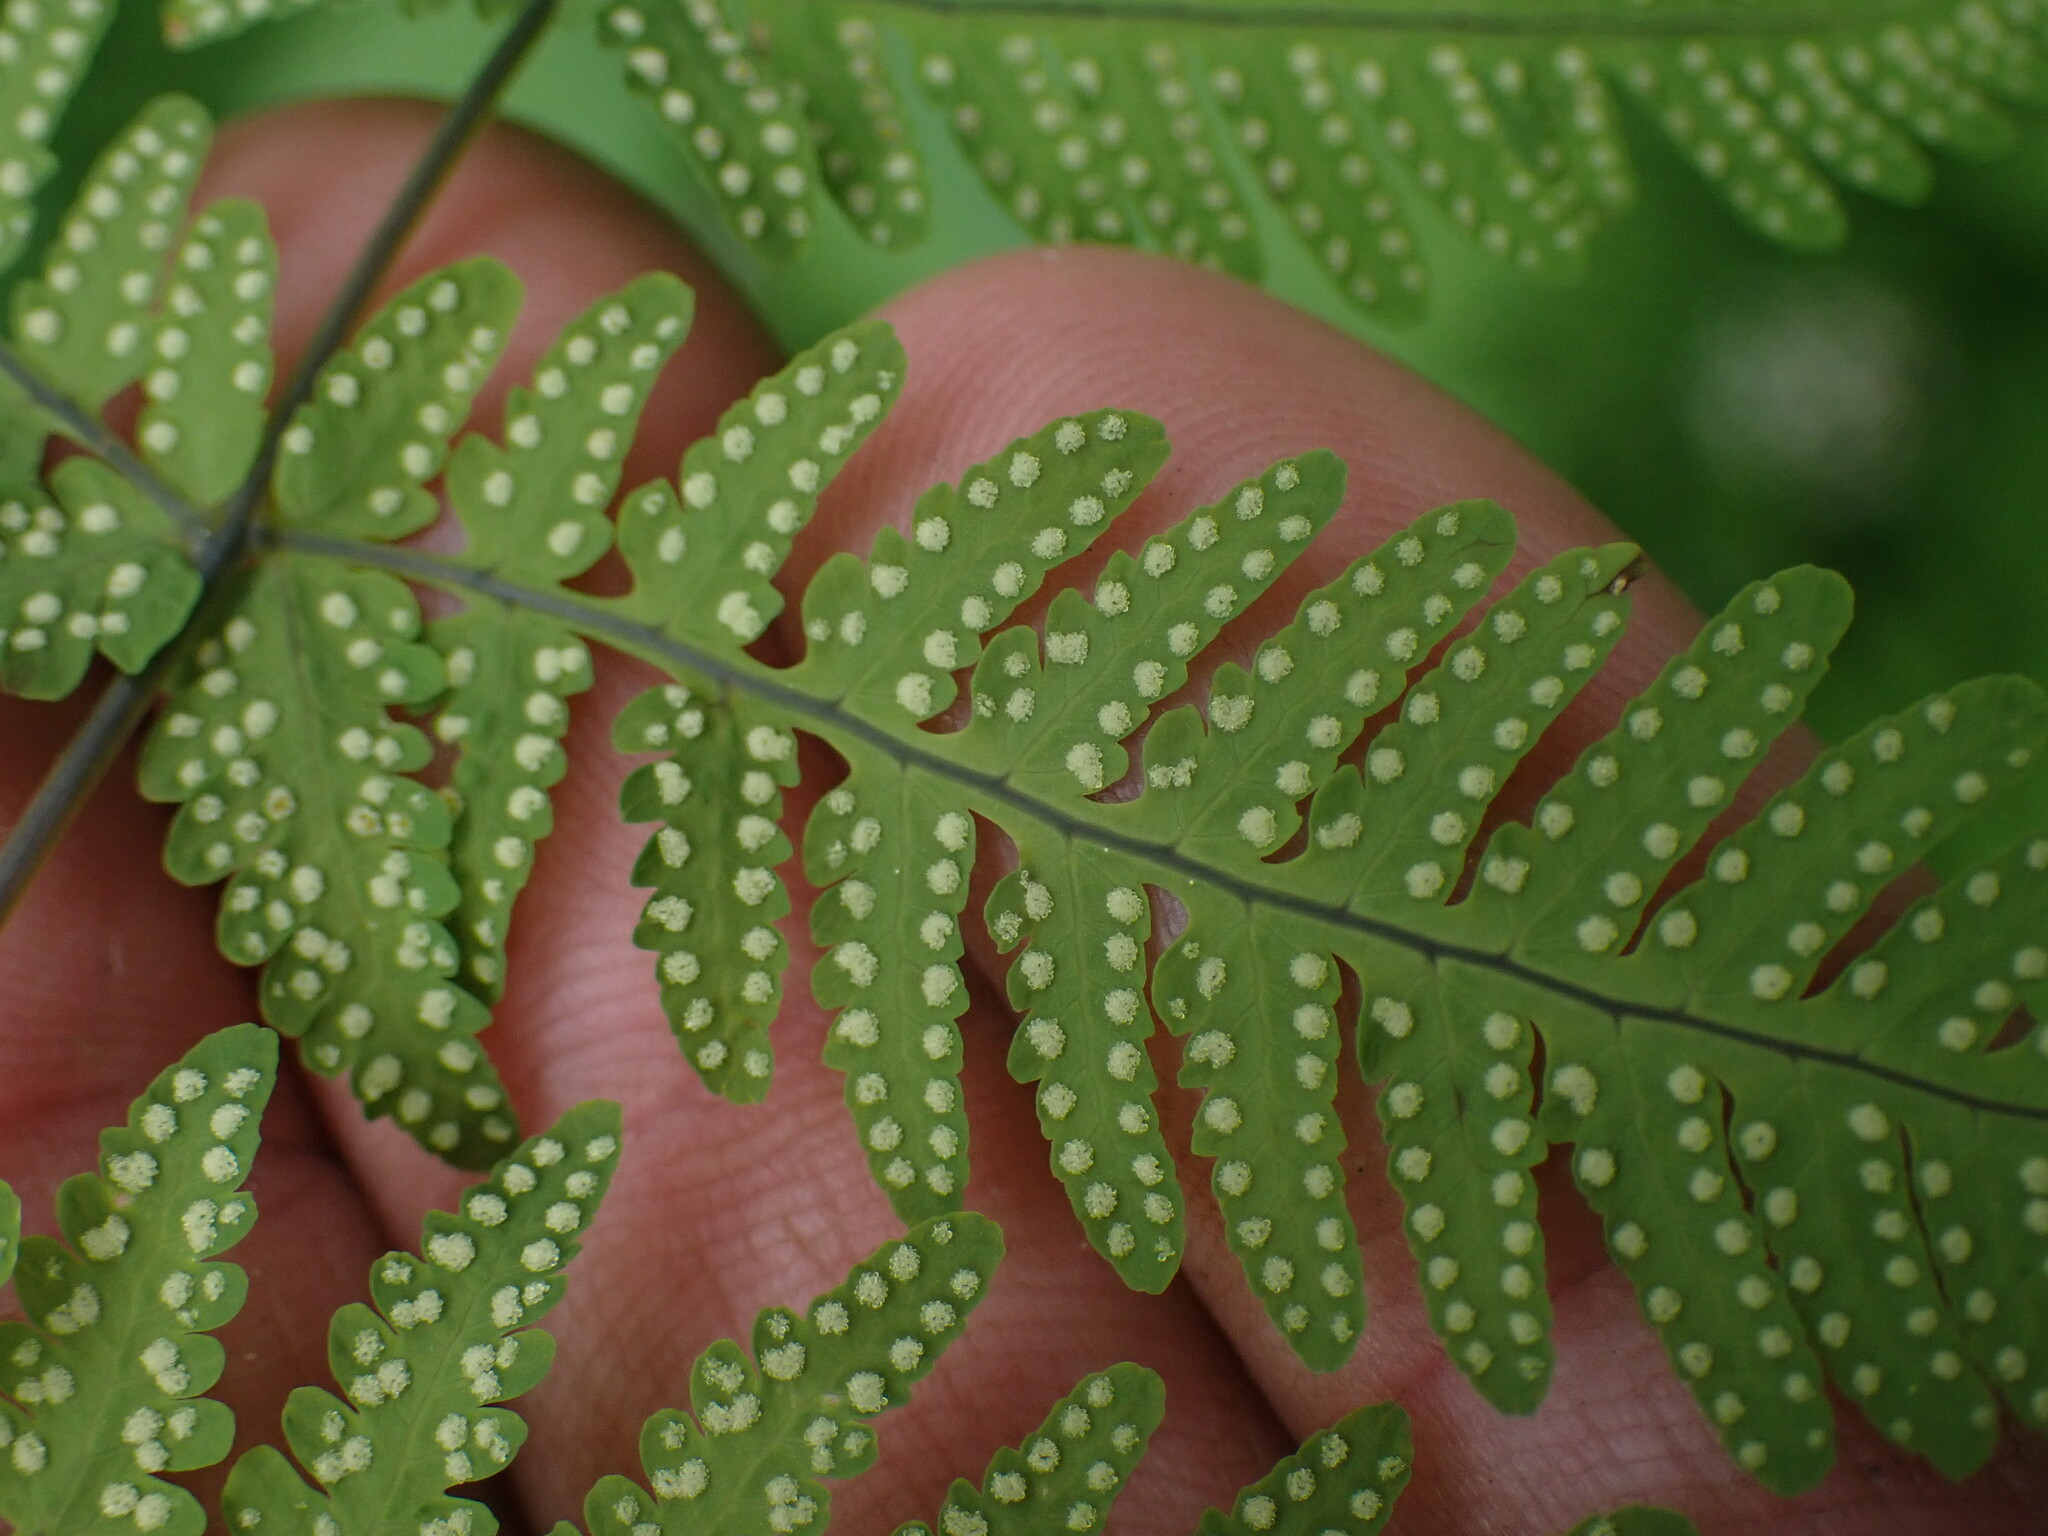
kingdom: Plantae
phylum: Tracheophyta
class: Polypodiopsida
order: Polypodiales
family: Cystopteridaceae
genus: Gymnocarpium
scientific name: Gymnocarpium disjunctum
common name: Western oak fern
